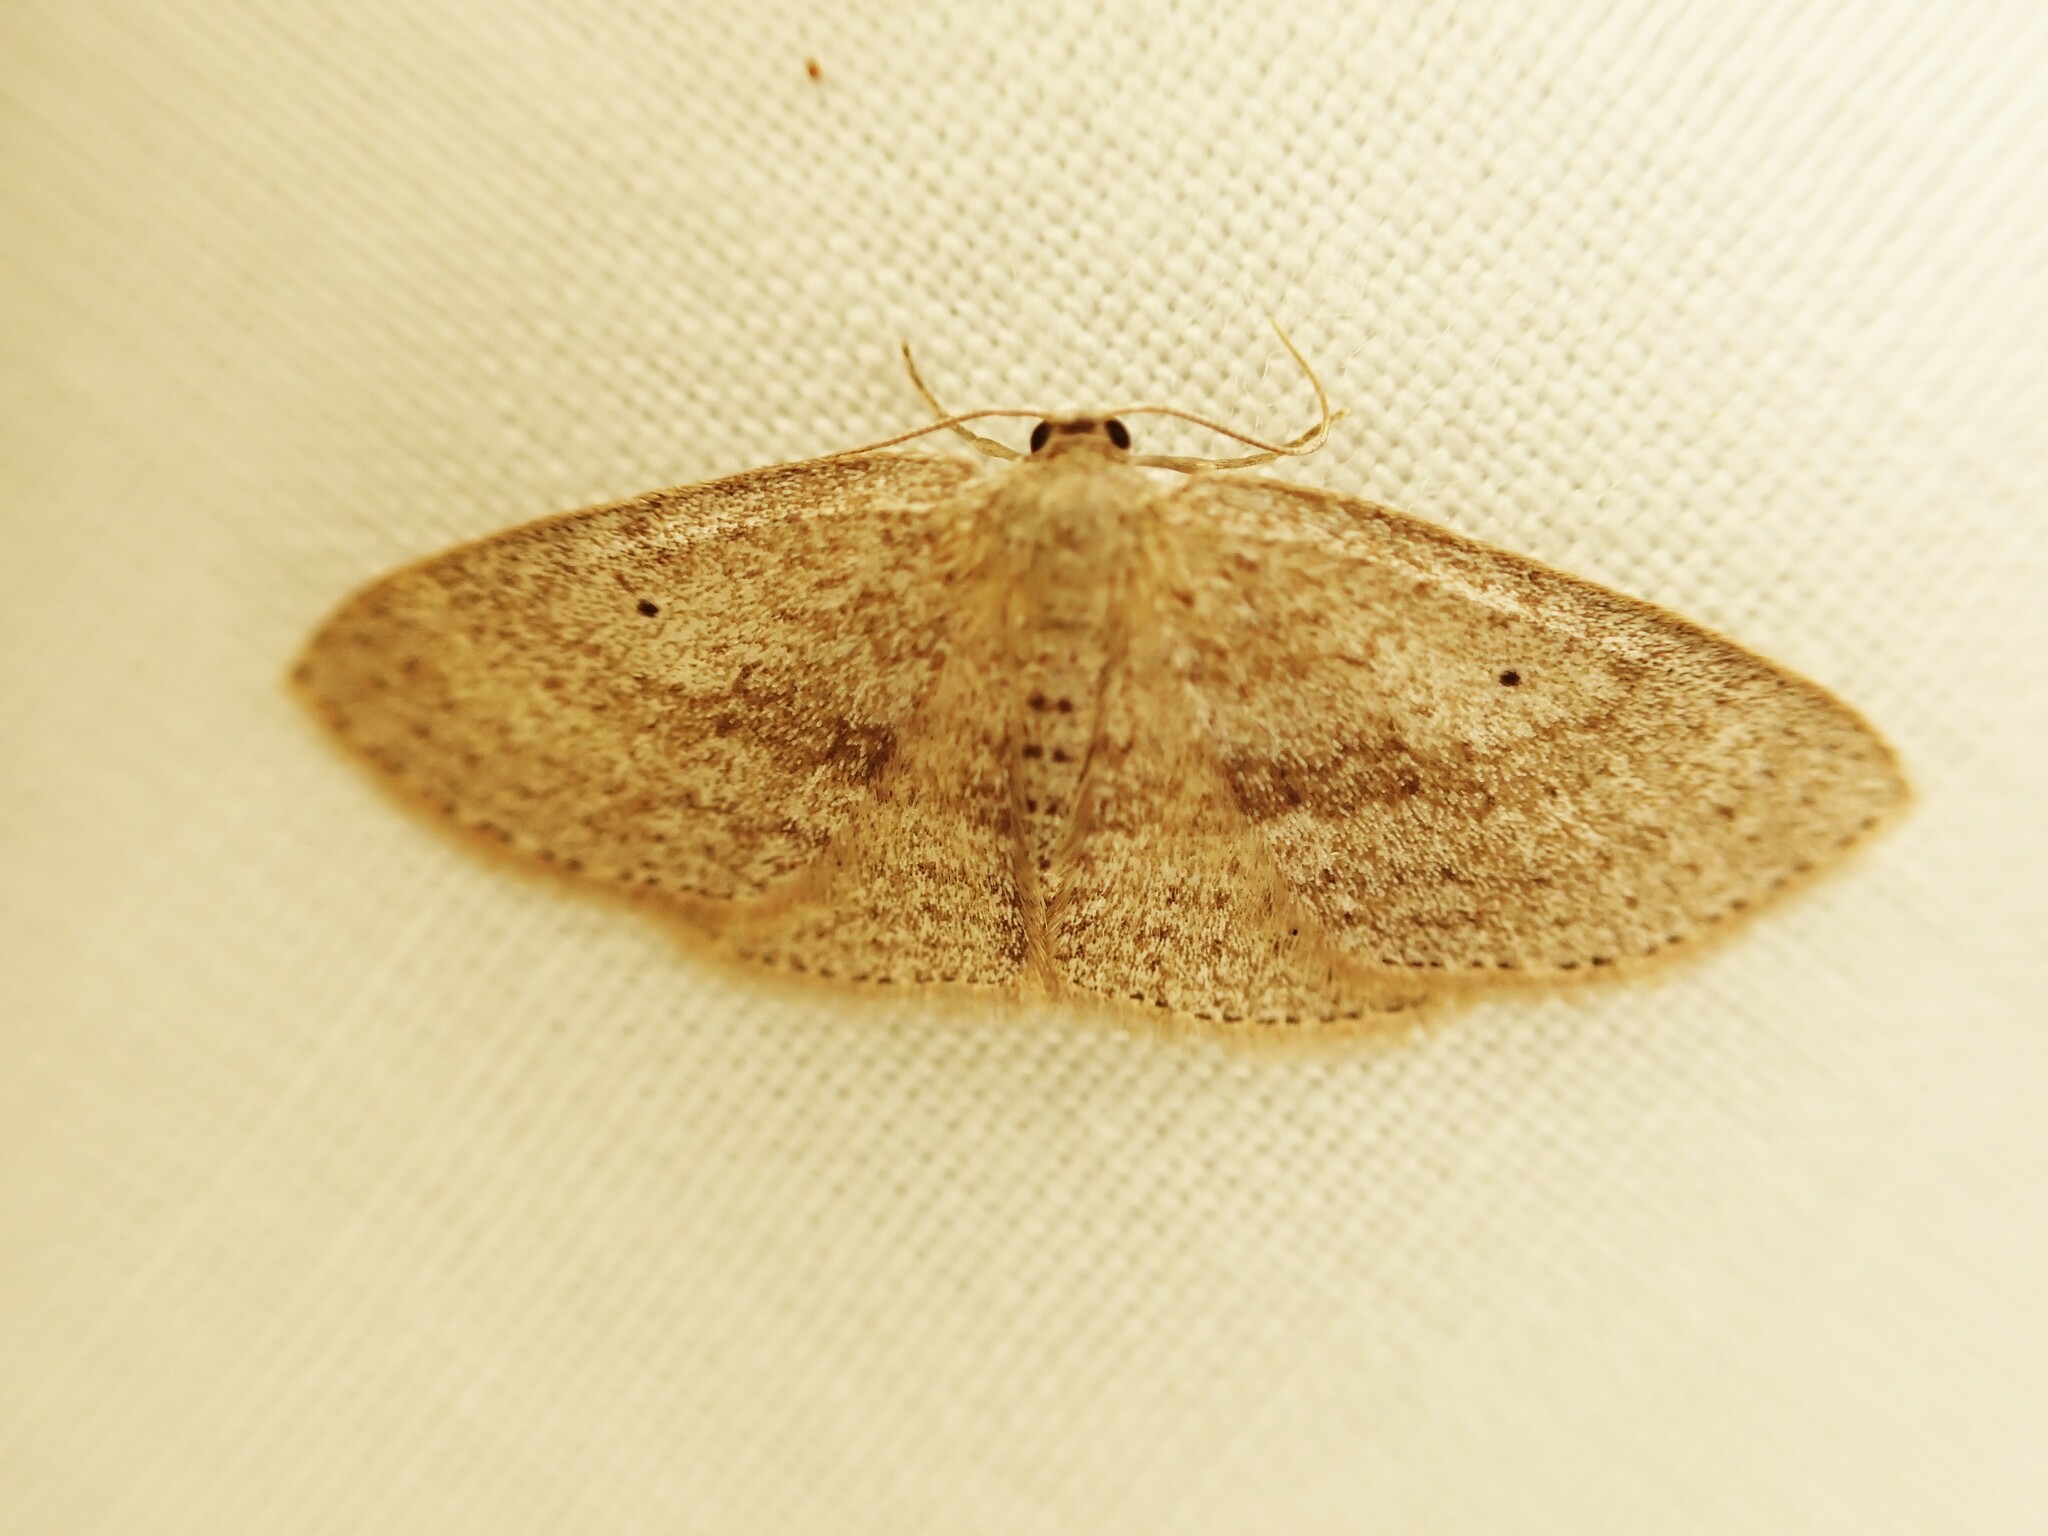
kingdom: Animalia
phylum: Arthropoda
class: Insecta
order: Lepidoptera
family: Geometridae
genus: Poecilasthena
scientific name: Poecilasthena schistaria
